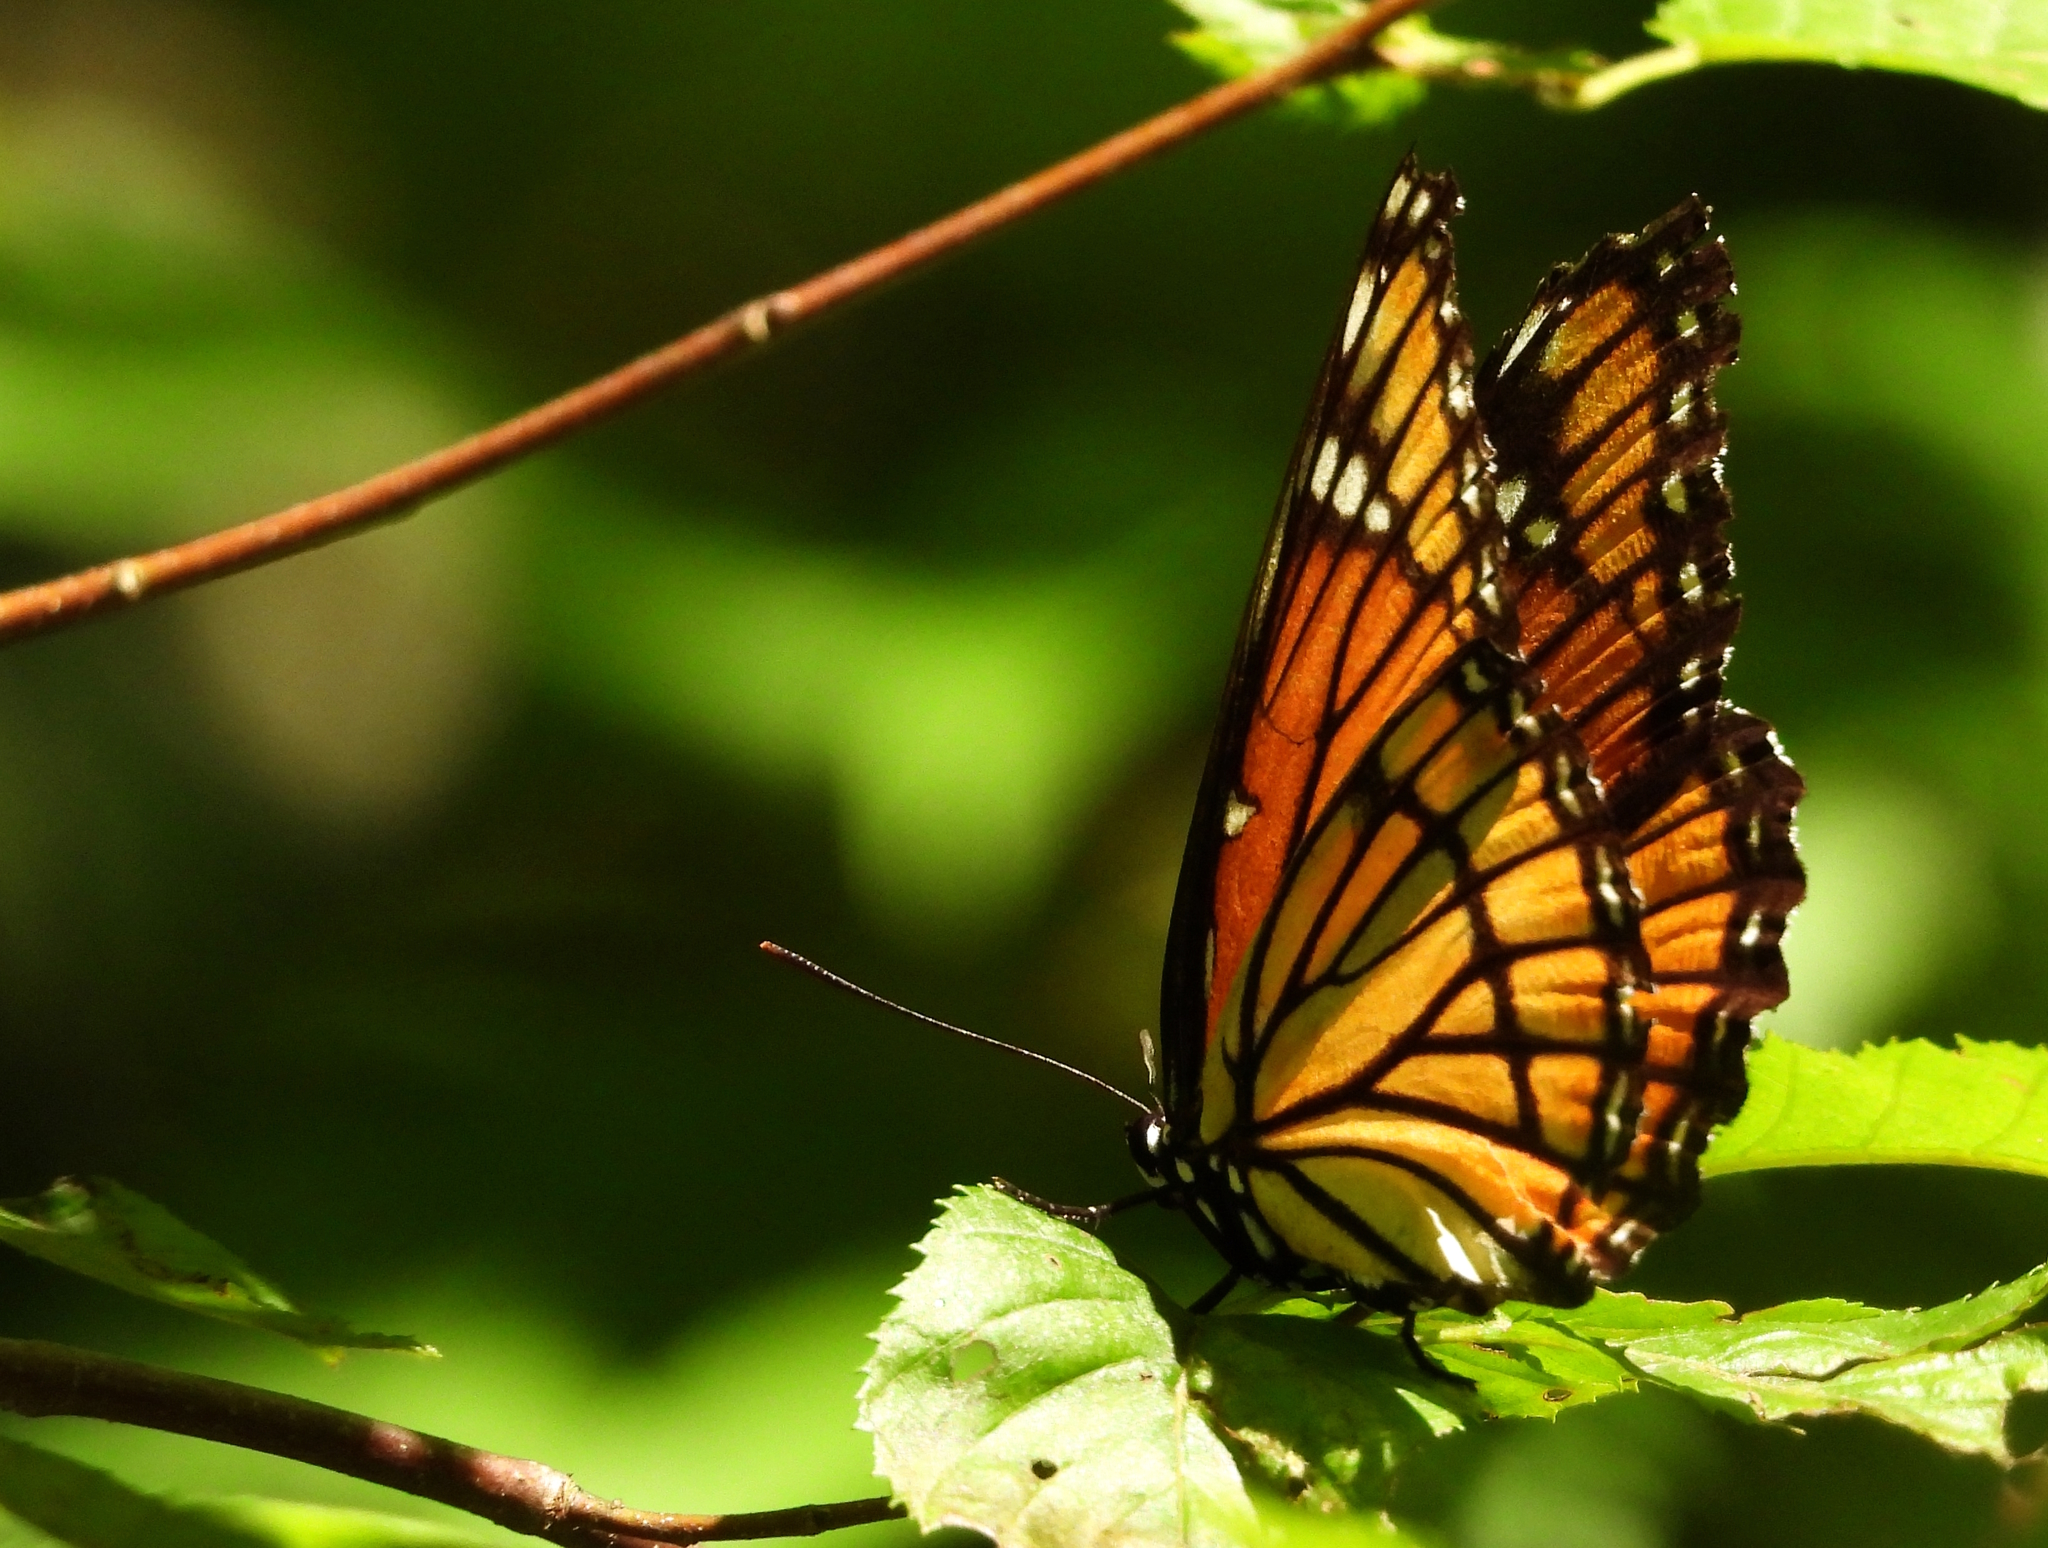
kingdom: Animalia
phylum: Arthropoda
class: Insecta
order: Lepidoptera
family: Nymphalidae
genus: Limenitis
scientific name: Limenitis archippus
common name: Viceroy
